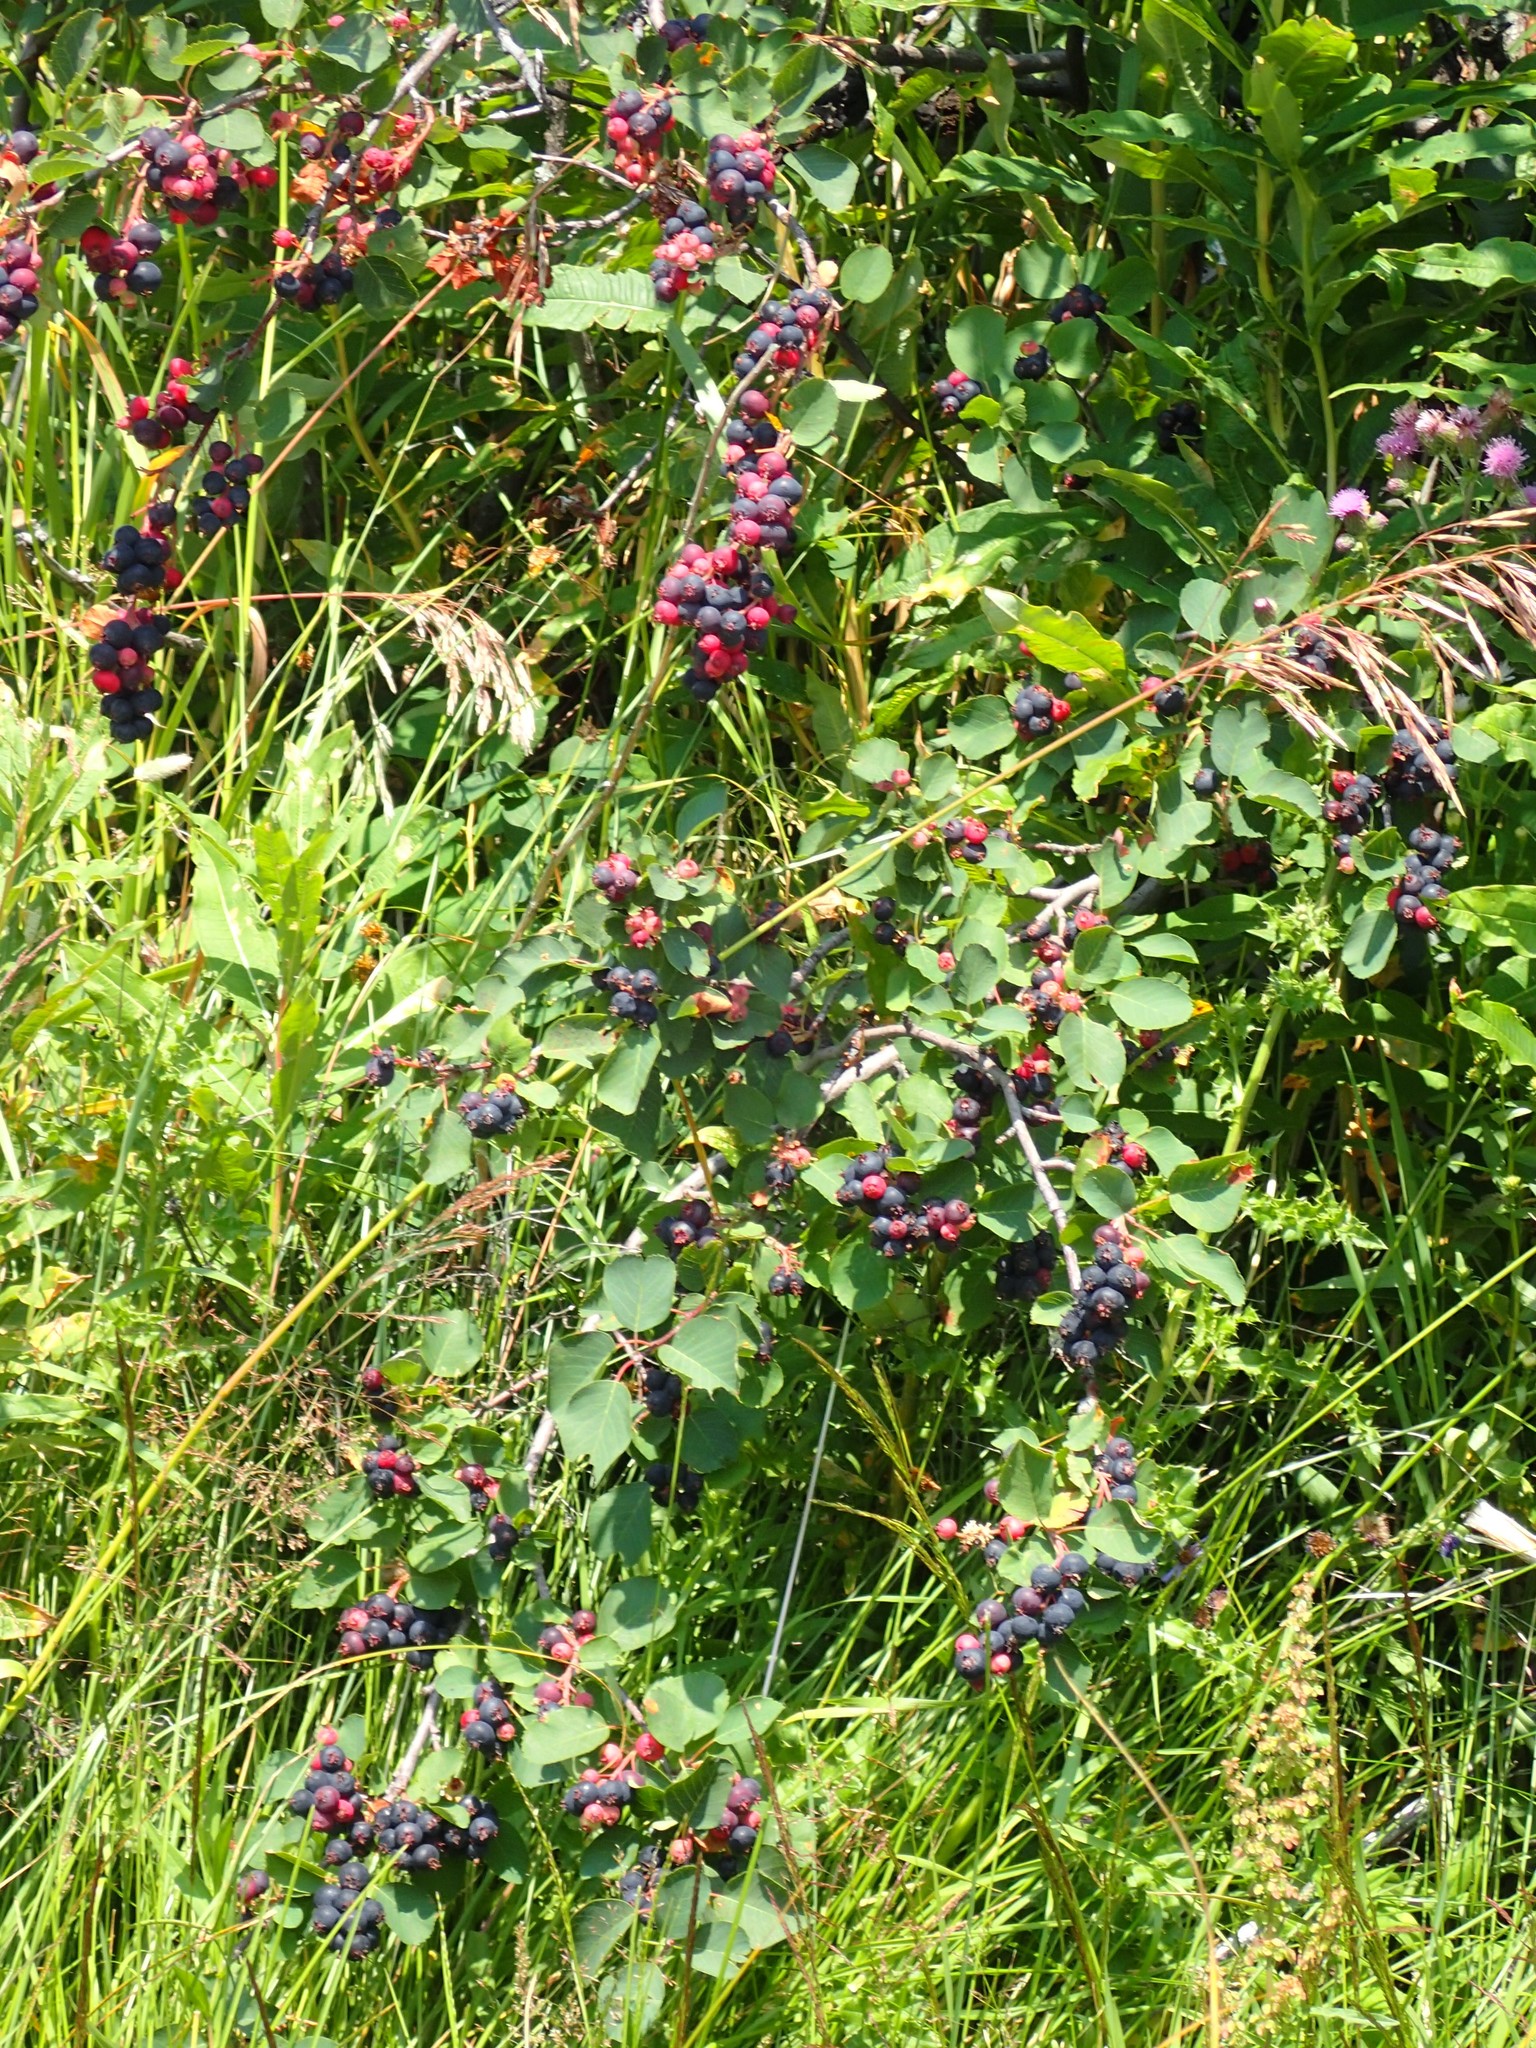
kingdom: Plantae
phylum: Tracheophyta
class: Magnoliopsida
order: Rosales
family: Rosaceae
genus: Amelanchier
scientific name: Amelanchier alnifolia
